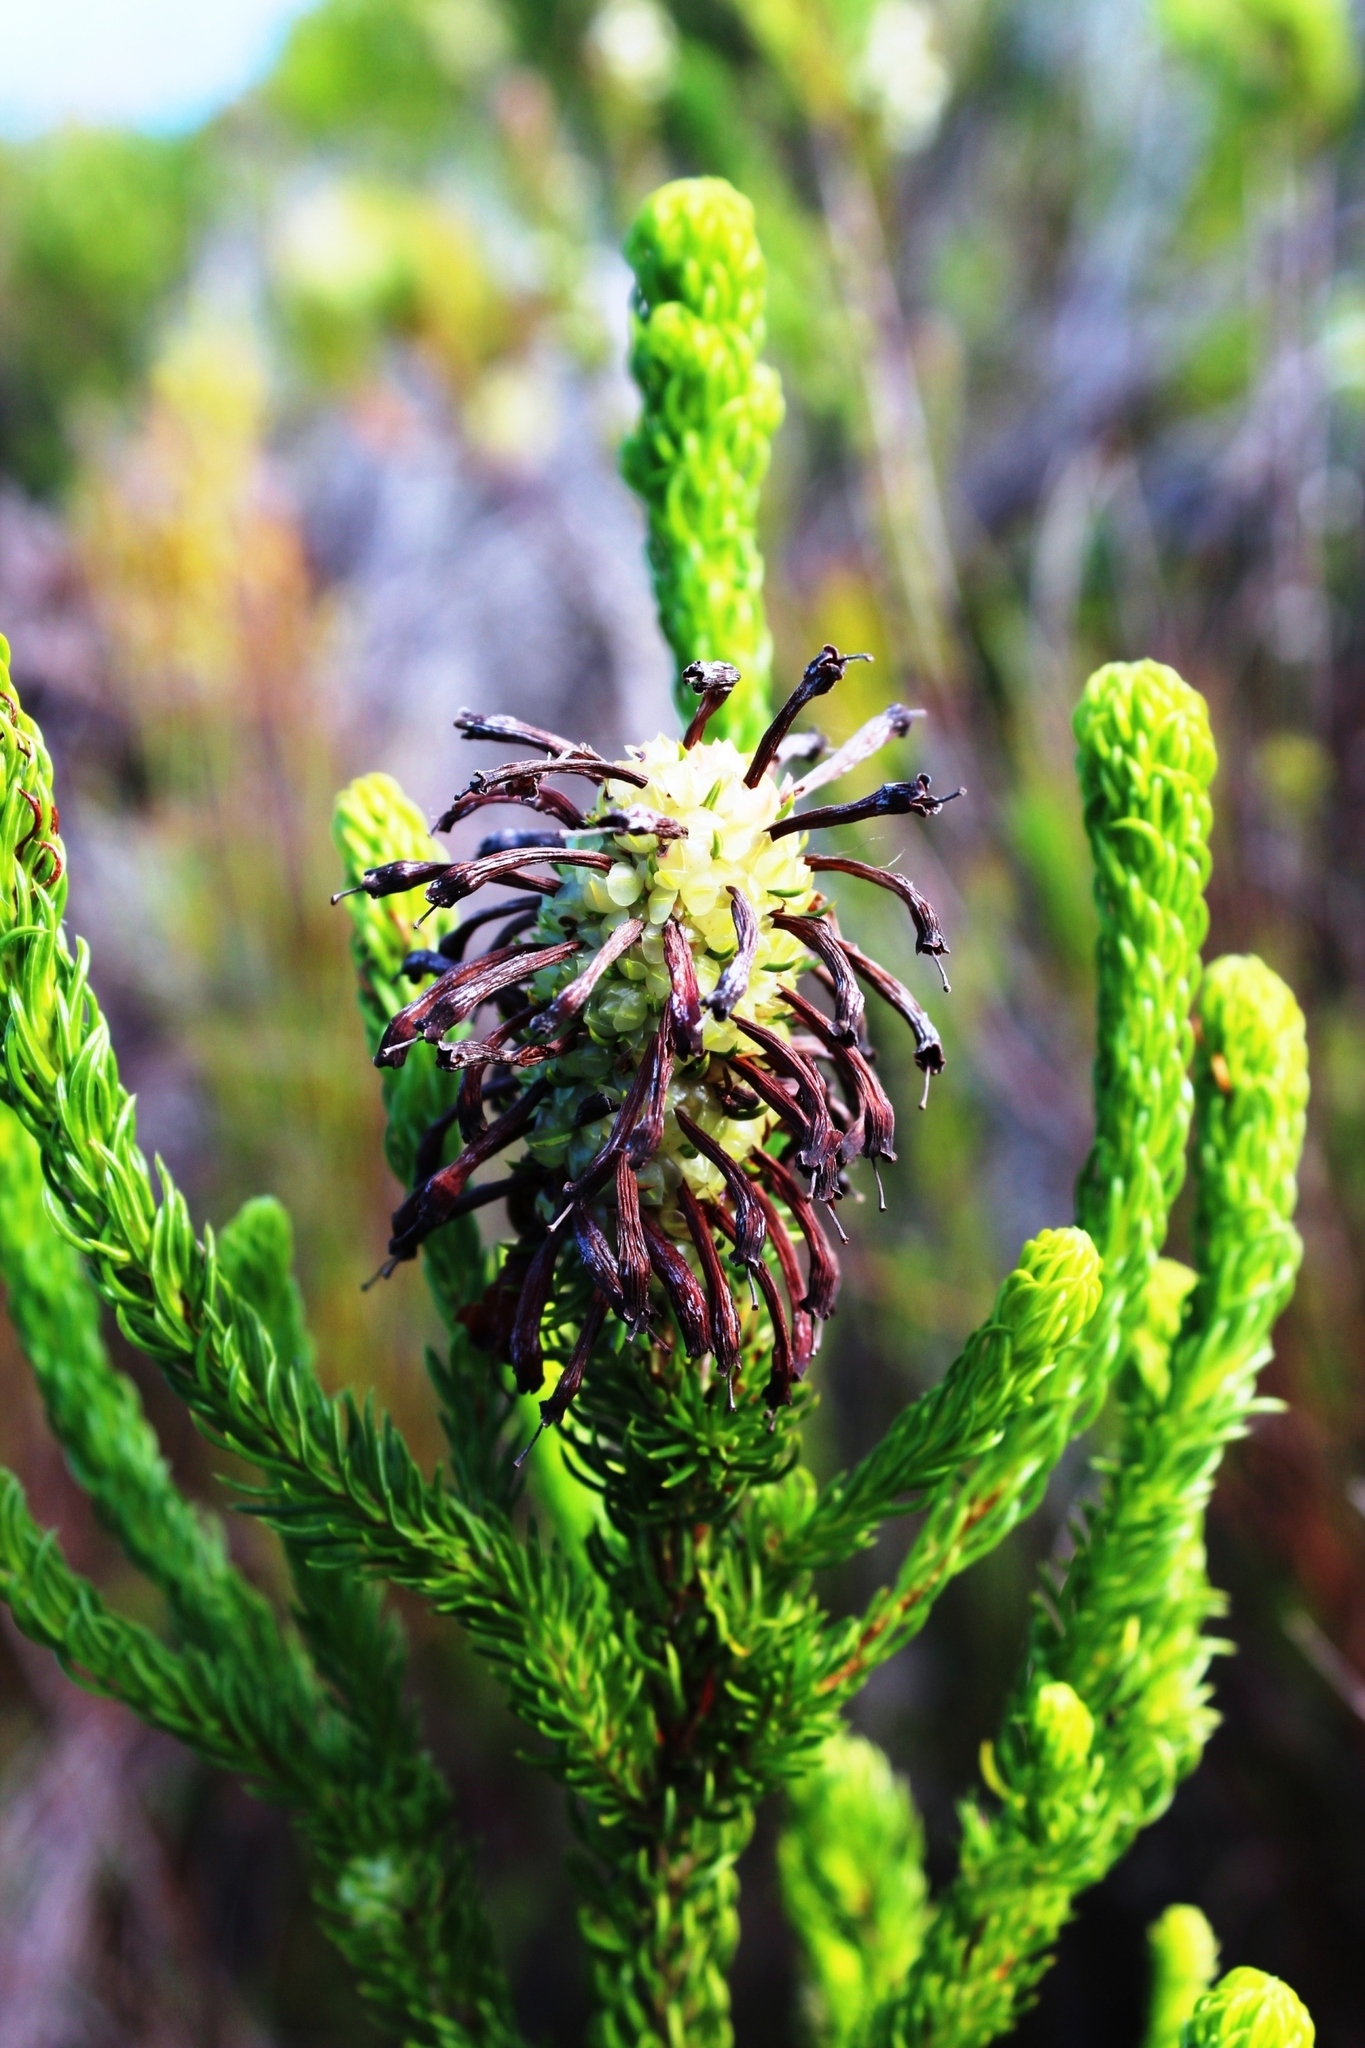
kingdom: Plantae
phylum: Tracheophyta
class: Magnoliopsida
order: Ericales
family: Ericaceae
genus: Erica
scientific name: Erica sessiliflora
